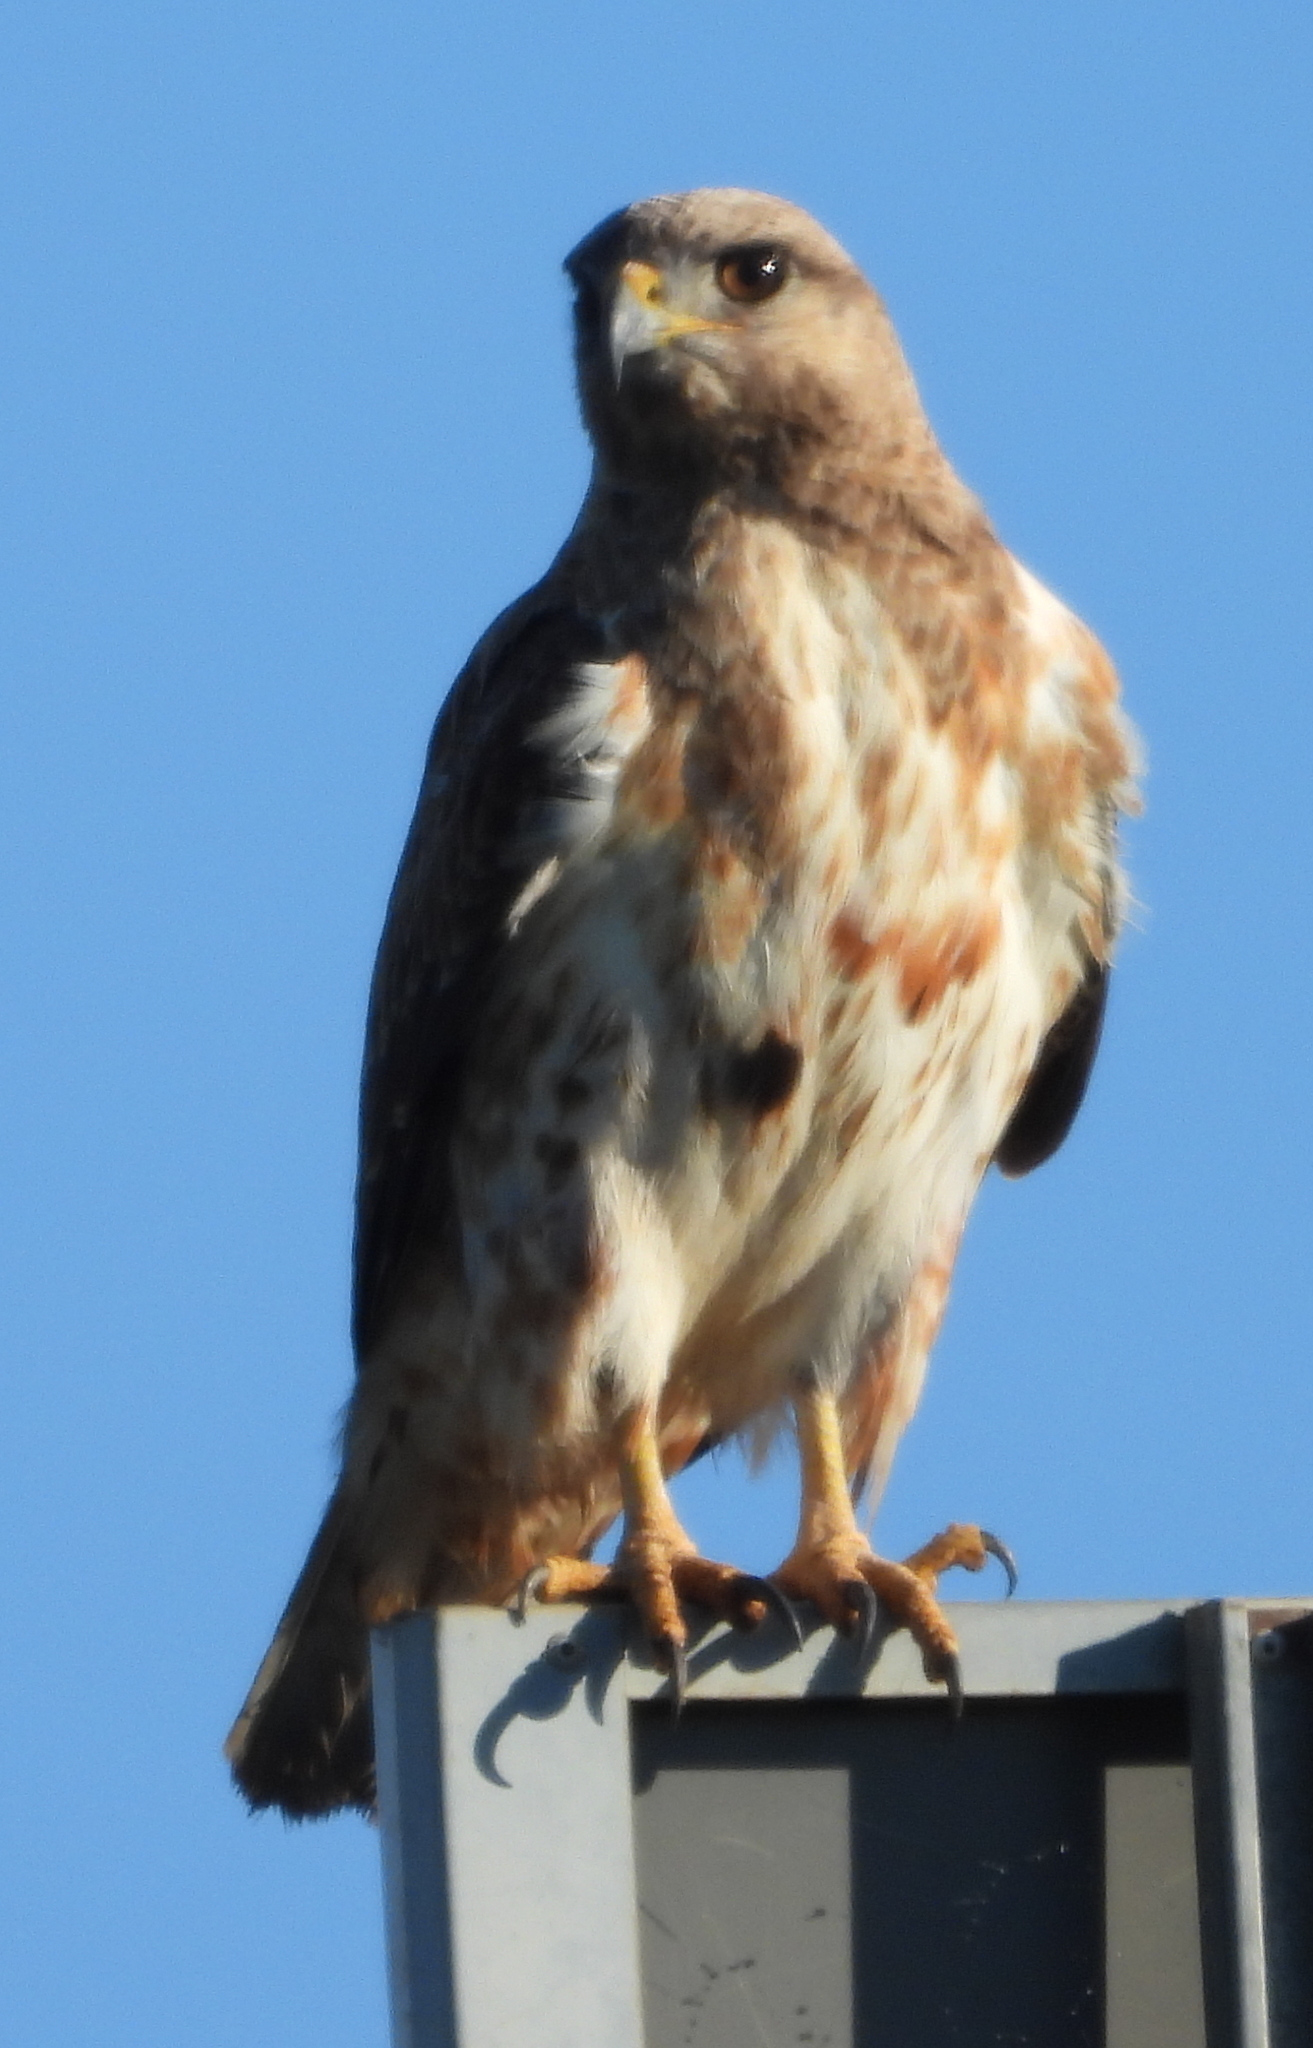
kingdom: Animalia
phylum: Chordata
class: Aves
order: Accipitriformes
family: Accipitridae
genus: Buteo
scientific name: Buteo rufofuscus
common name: Jackal buzzard
